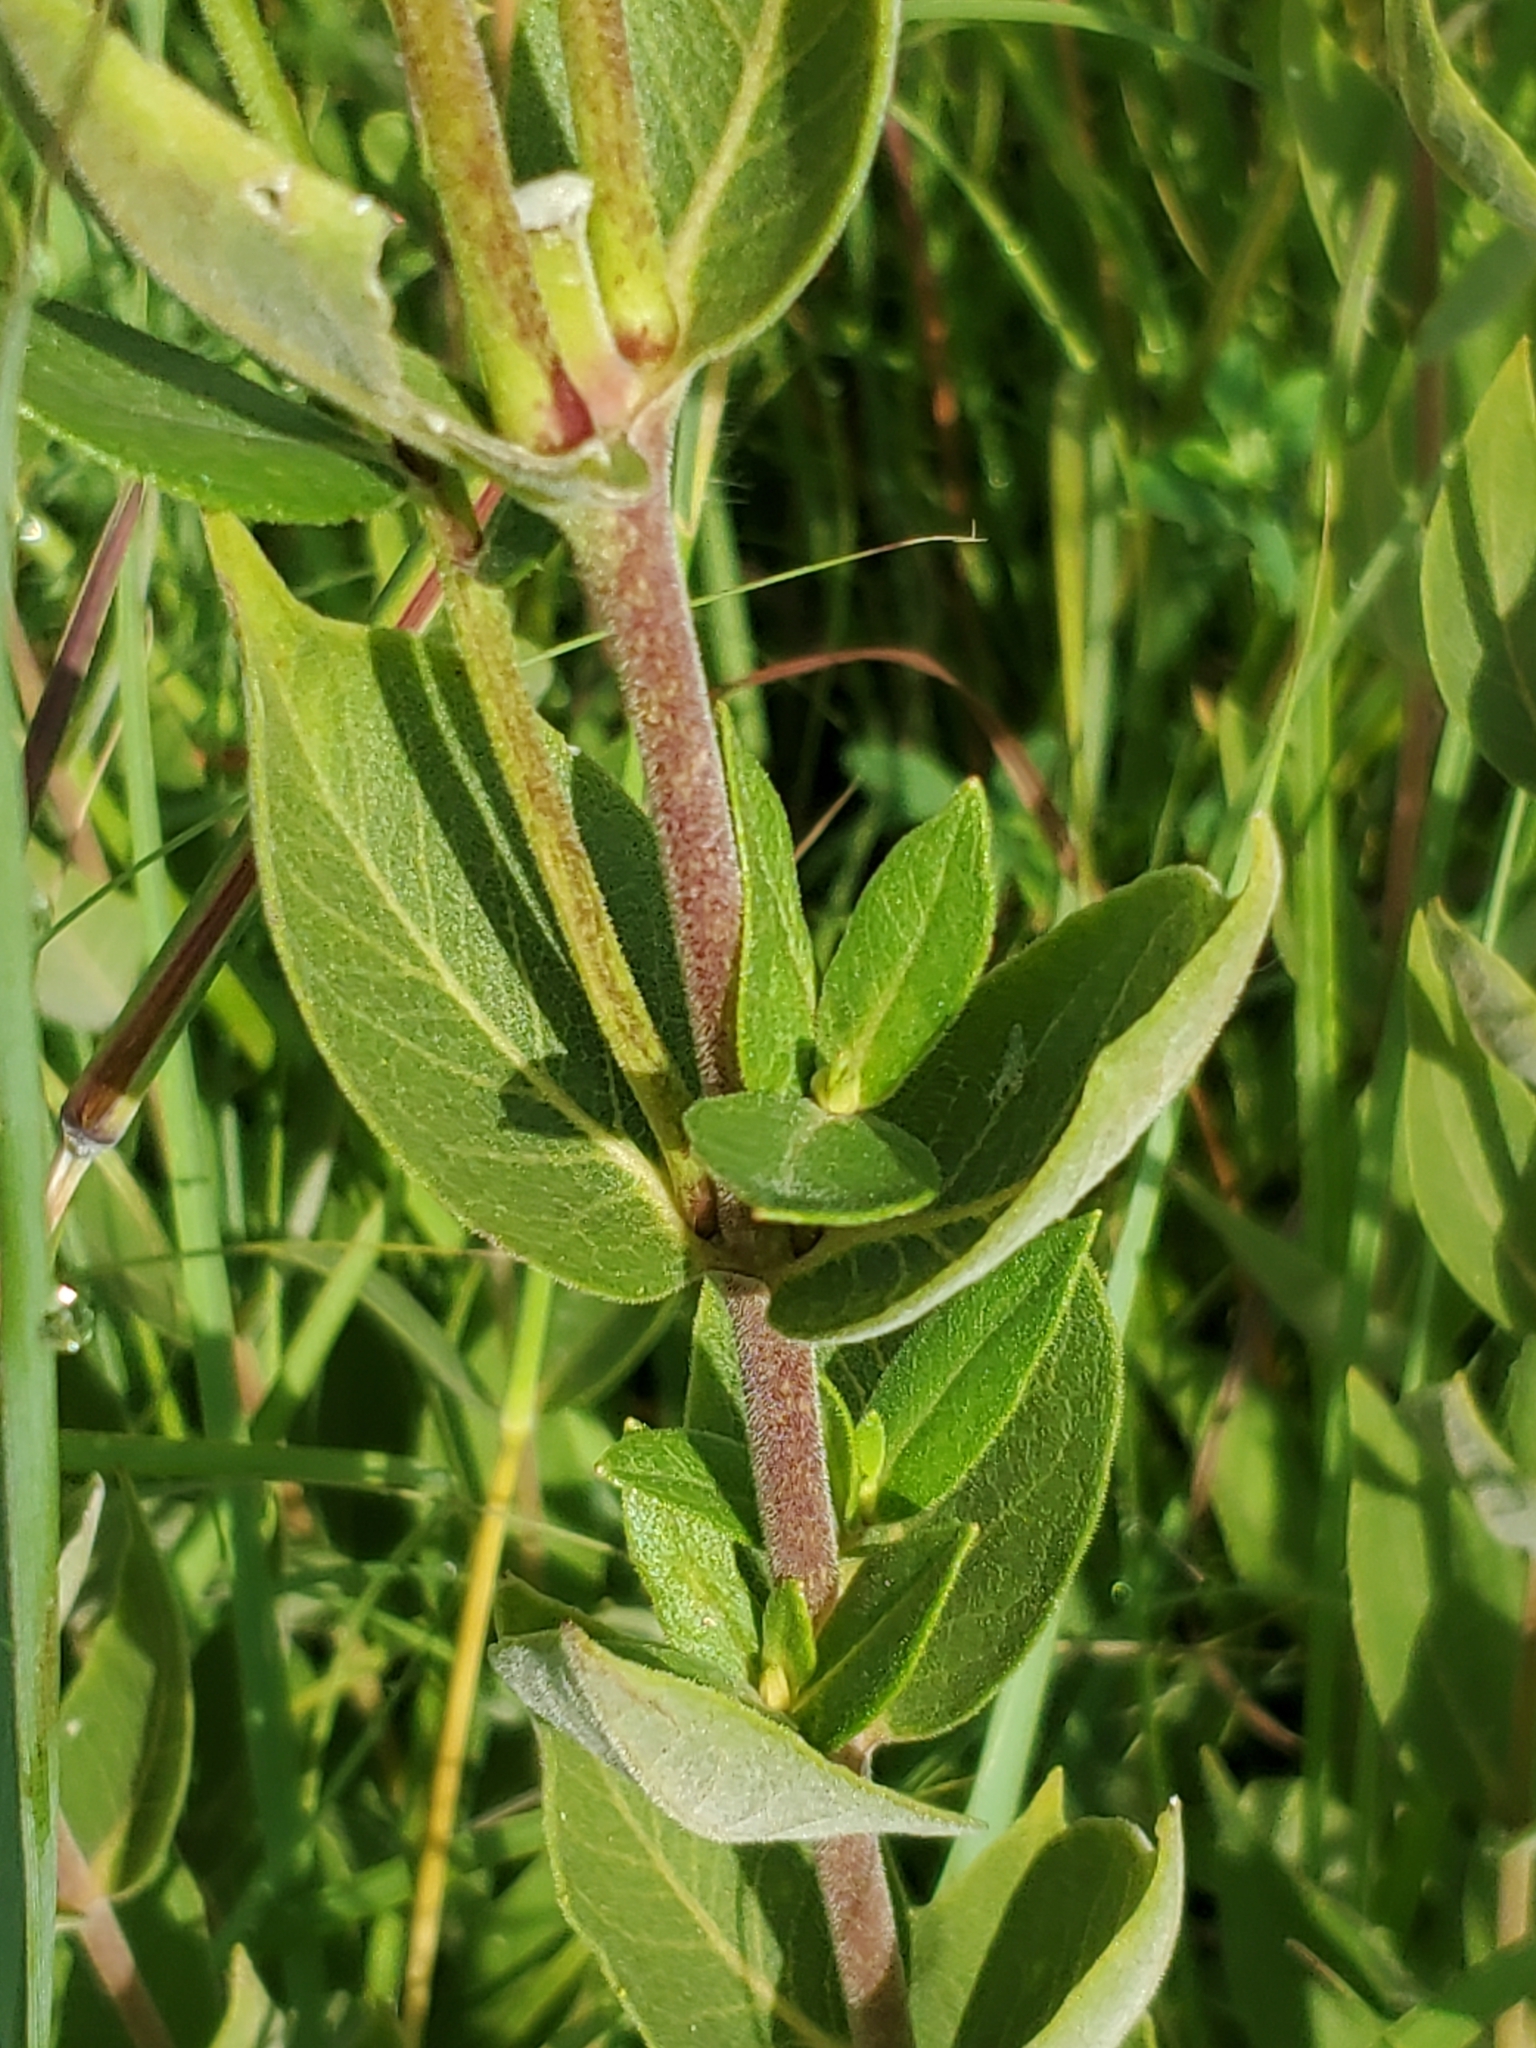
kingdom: Plantae
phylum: Tracheophyta
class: Magnoliopsida
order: Asterales
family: Asteraceae
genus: Silphium
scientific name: Silphium integrifolium
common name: Whole-leaf rosinweed
